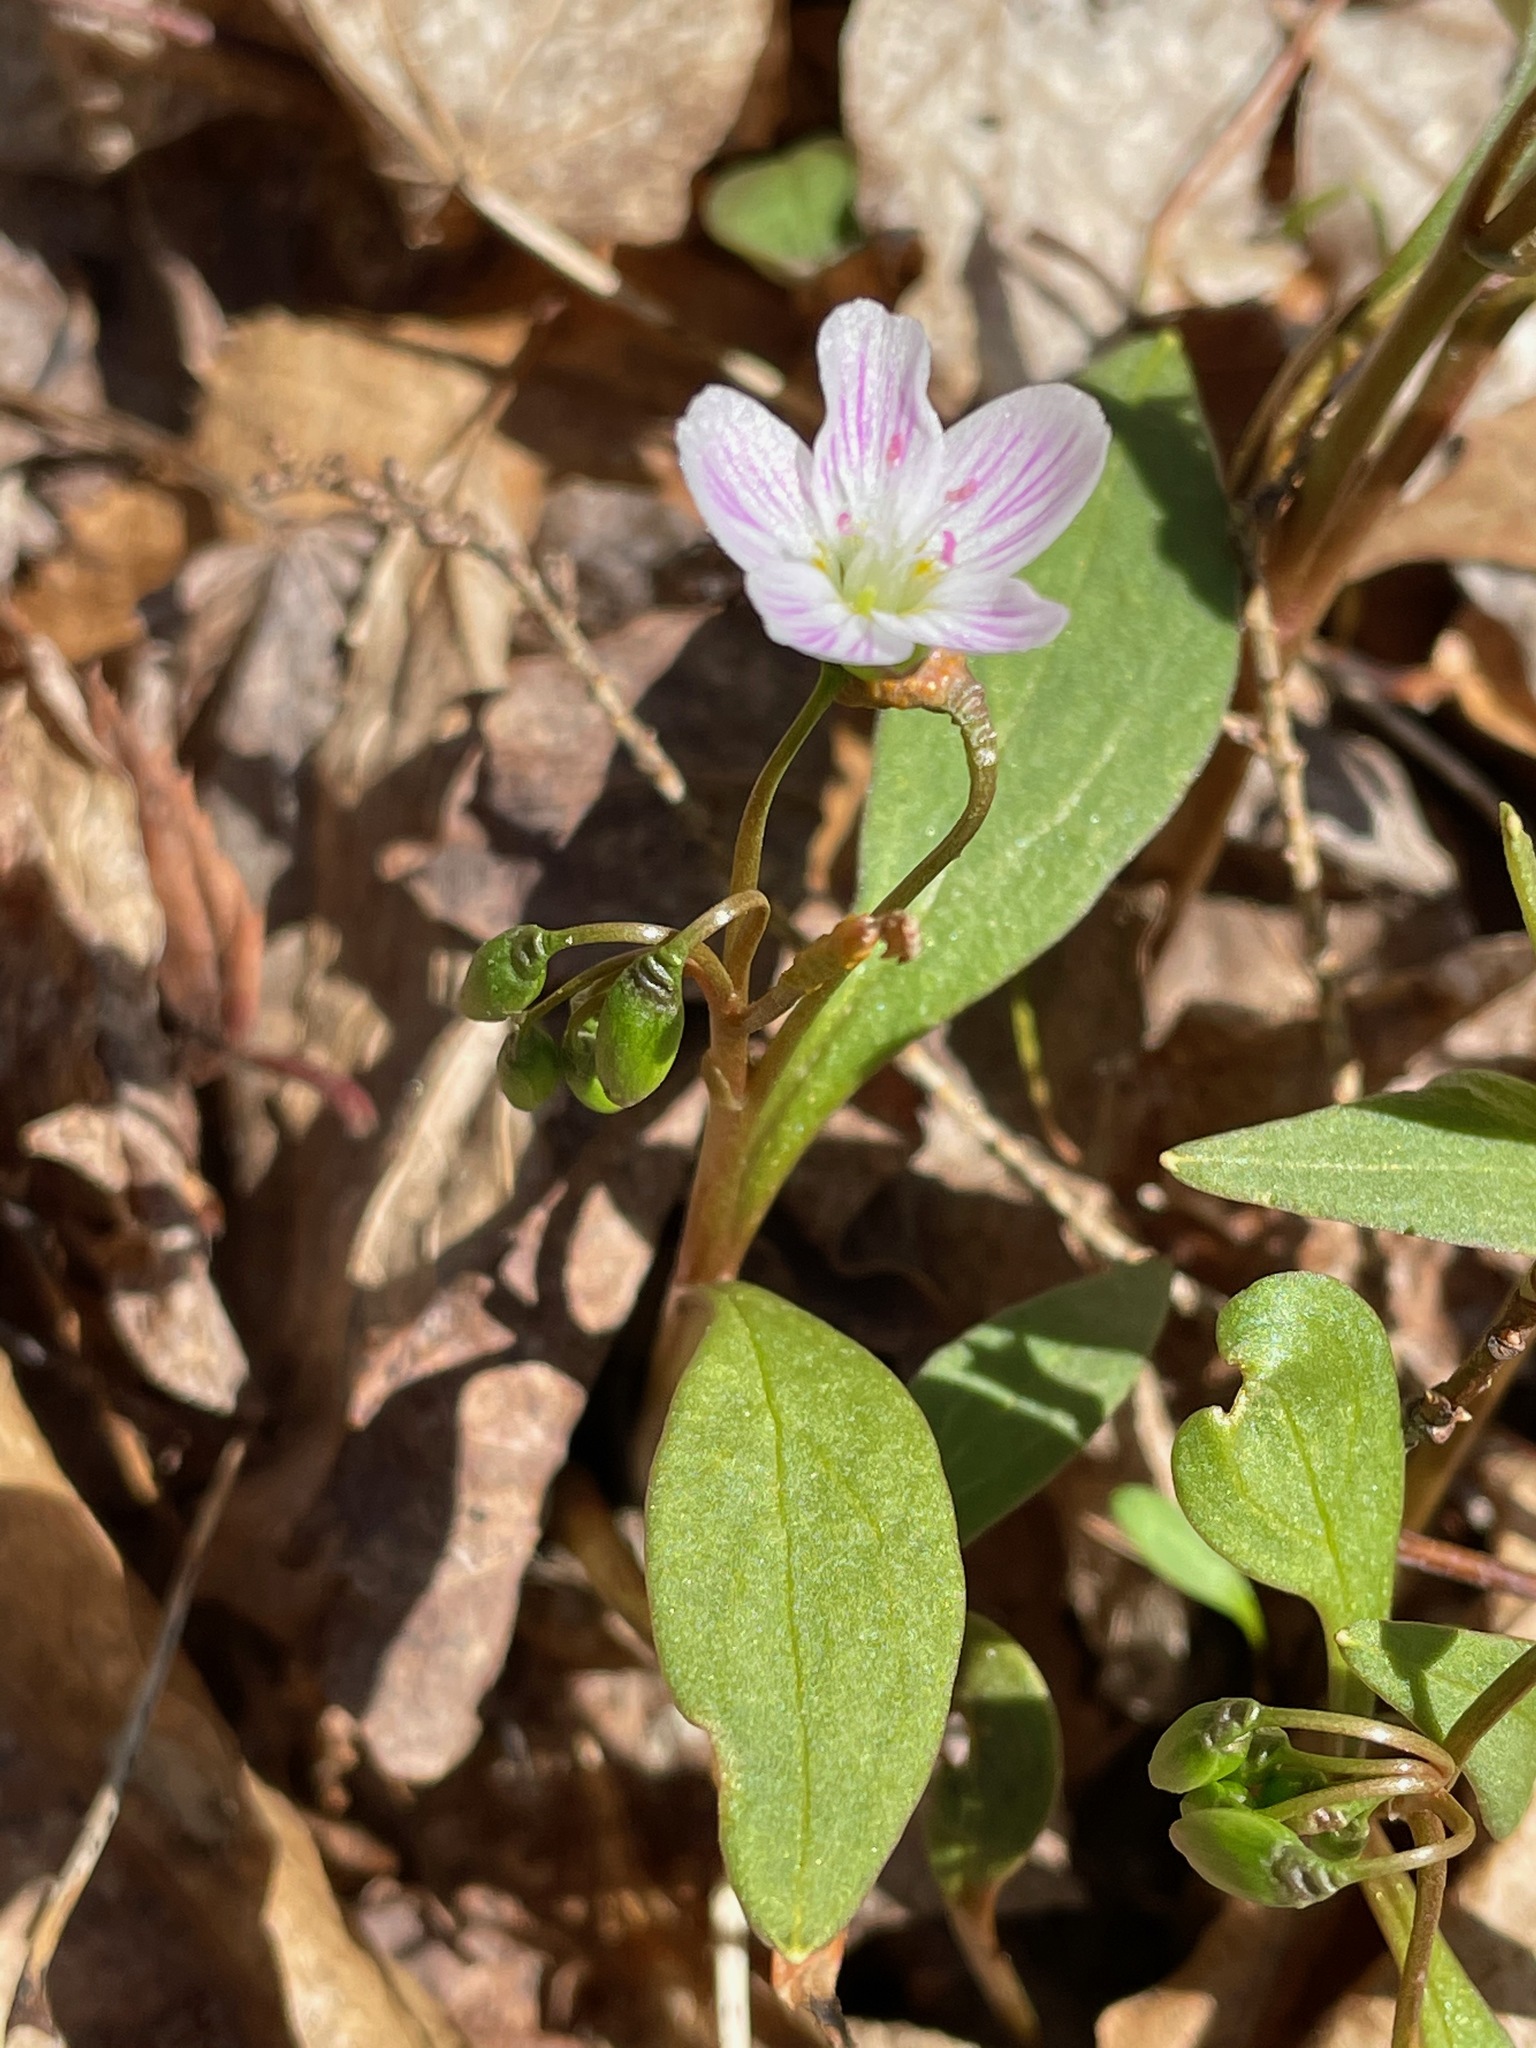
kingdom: Plantae
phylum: Tracheophyta
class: Magnoliopsida
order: Caryophyllales
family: Montiaceae
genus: Claytonia
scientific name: Claytonia caroliniana
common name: Carolina spring beauty
